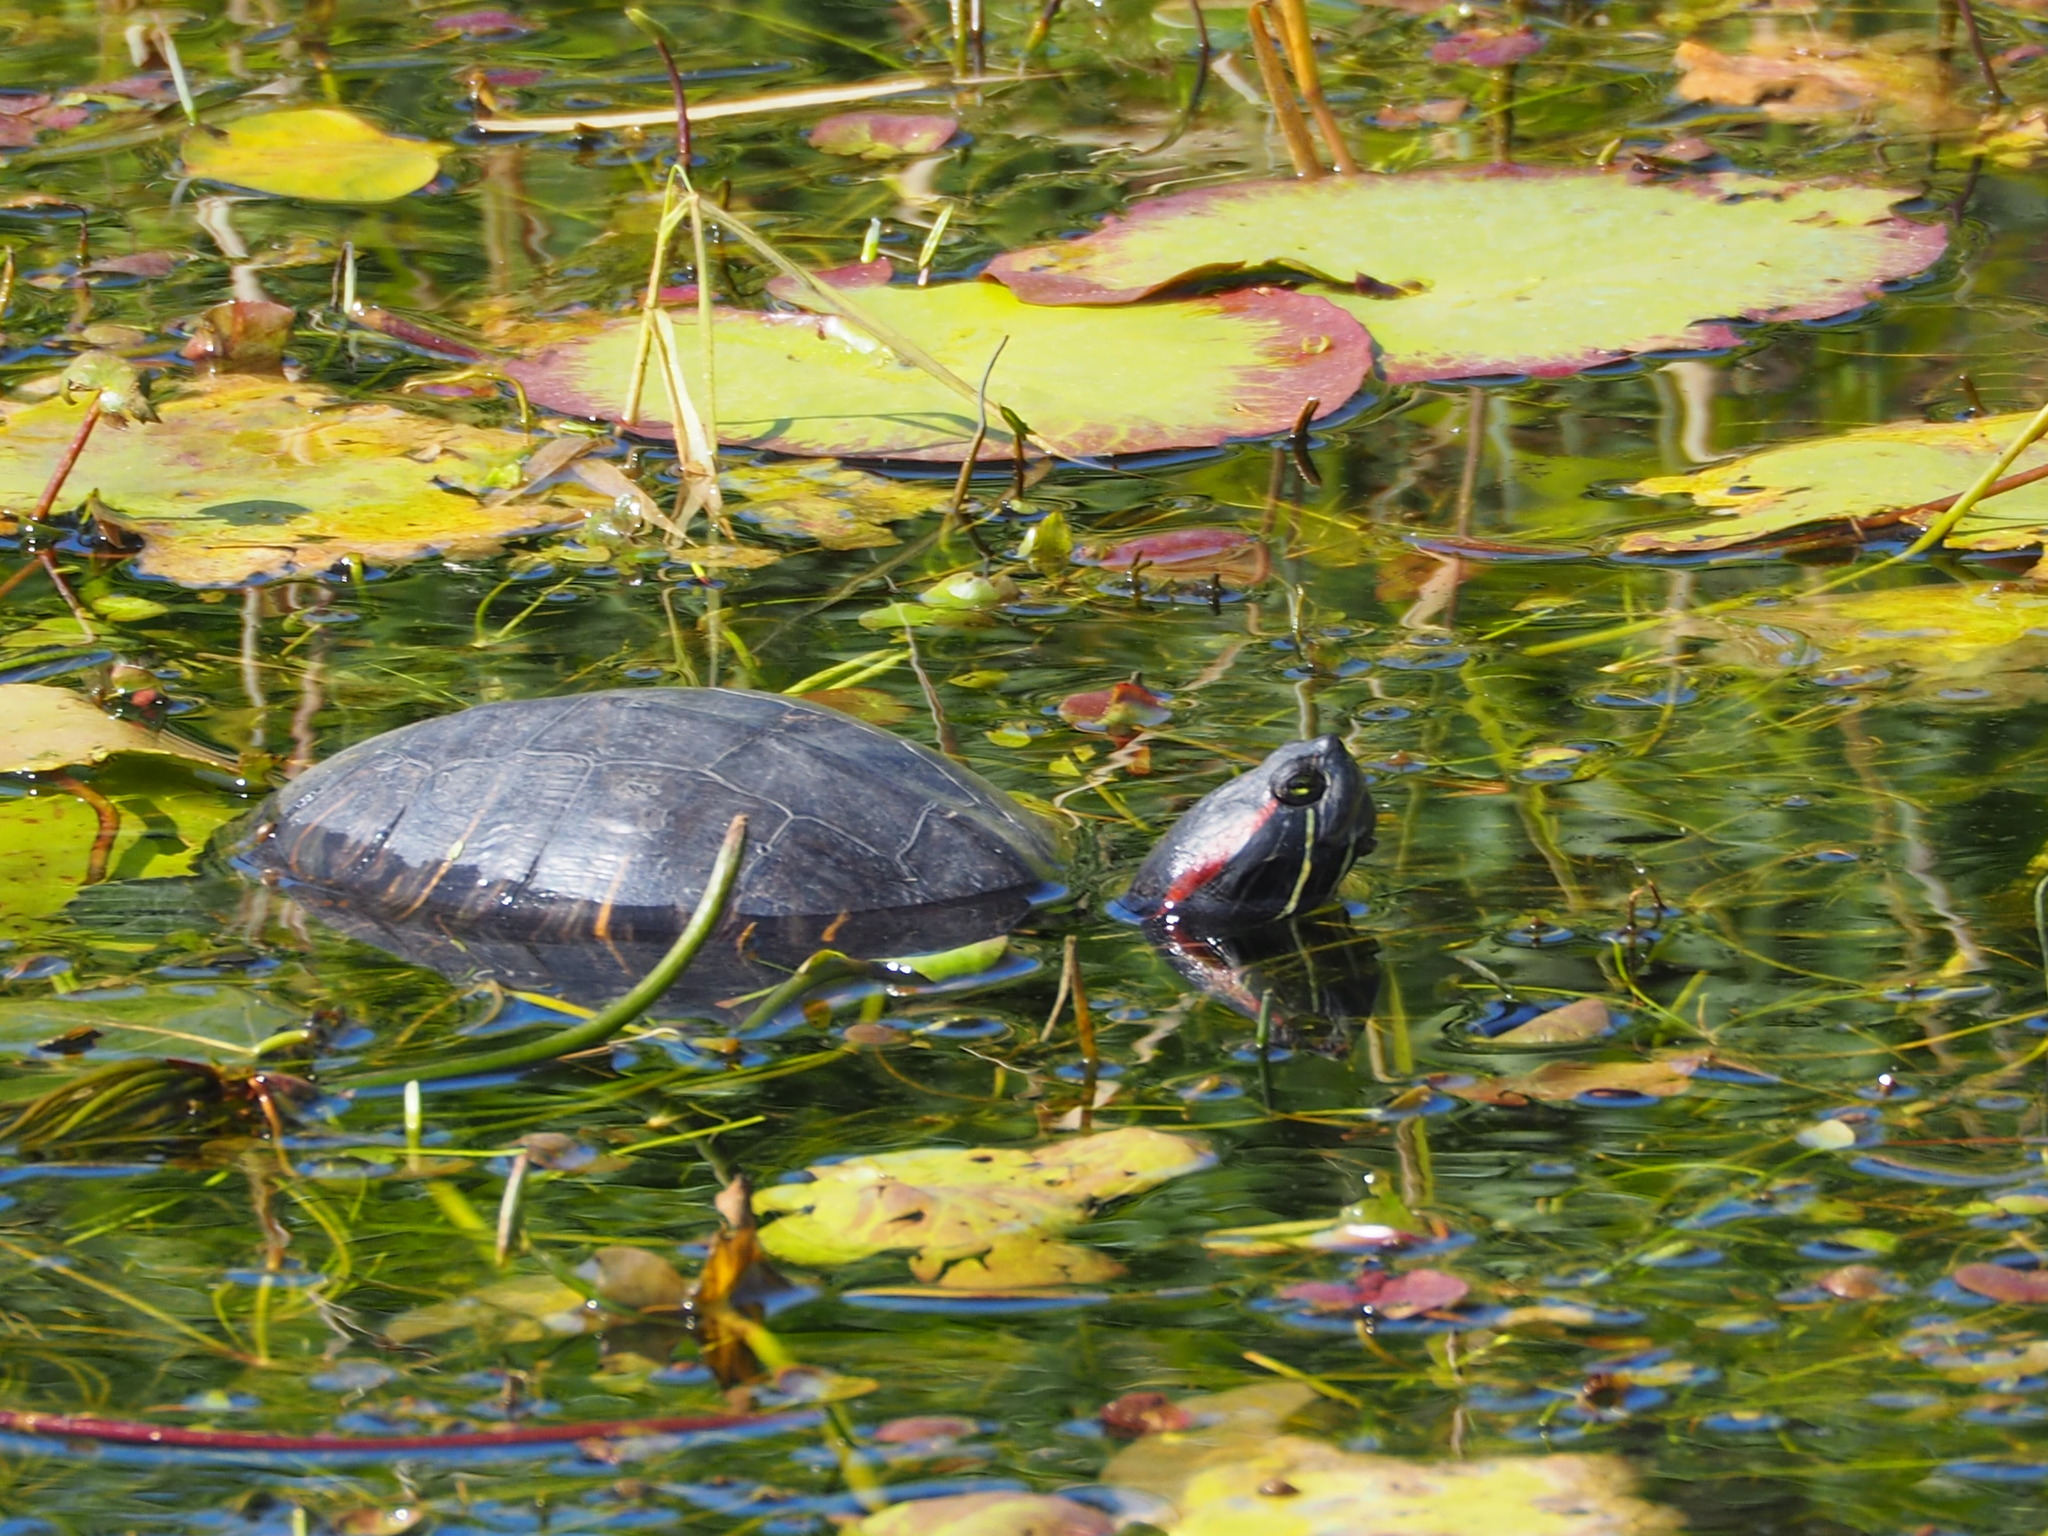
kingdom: Animalia
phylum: Chordata
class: Testudines
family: Emydidae
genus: Trachemys
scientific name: Trachemys scripta
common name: Slider
